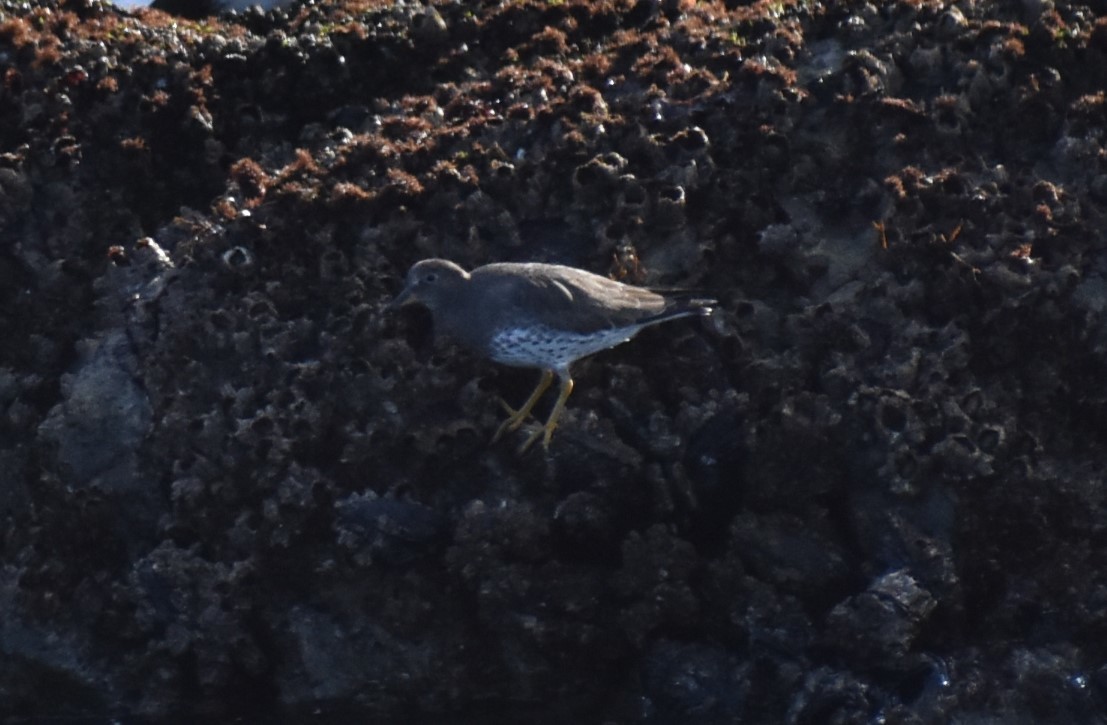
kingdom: Animalia
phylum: Chordata
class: Aves
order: Charadriiformes
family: Scolopacidae
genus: Calidris
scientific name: Calidris virgata
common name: Surfbird
